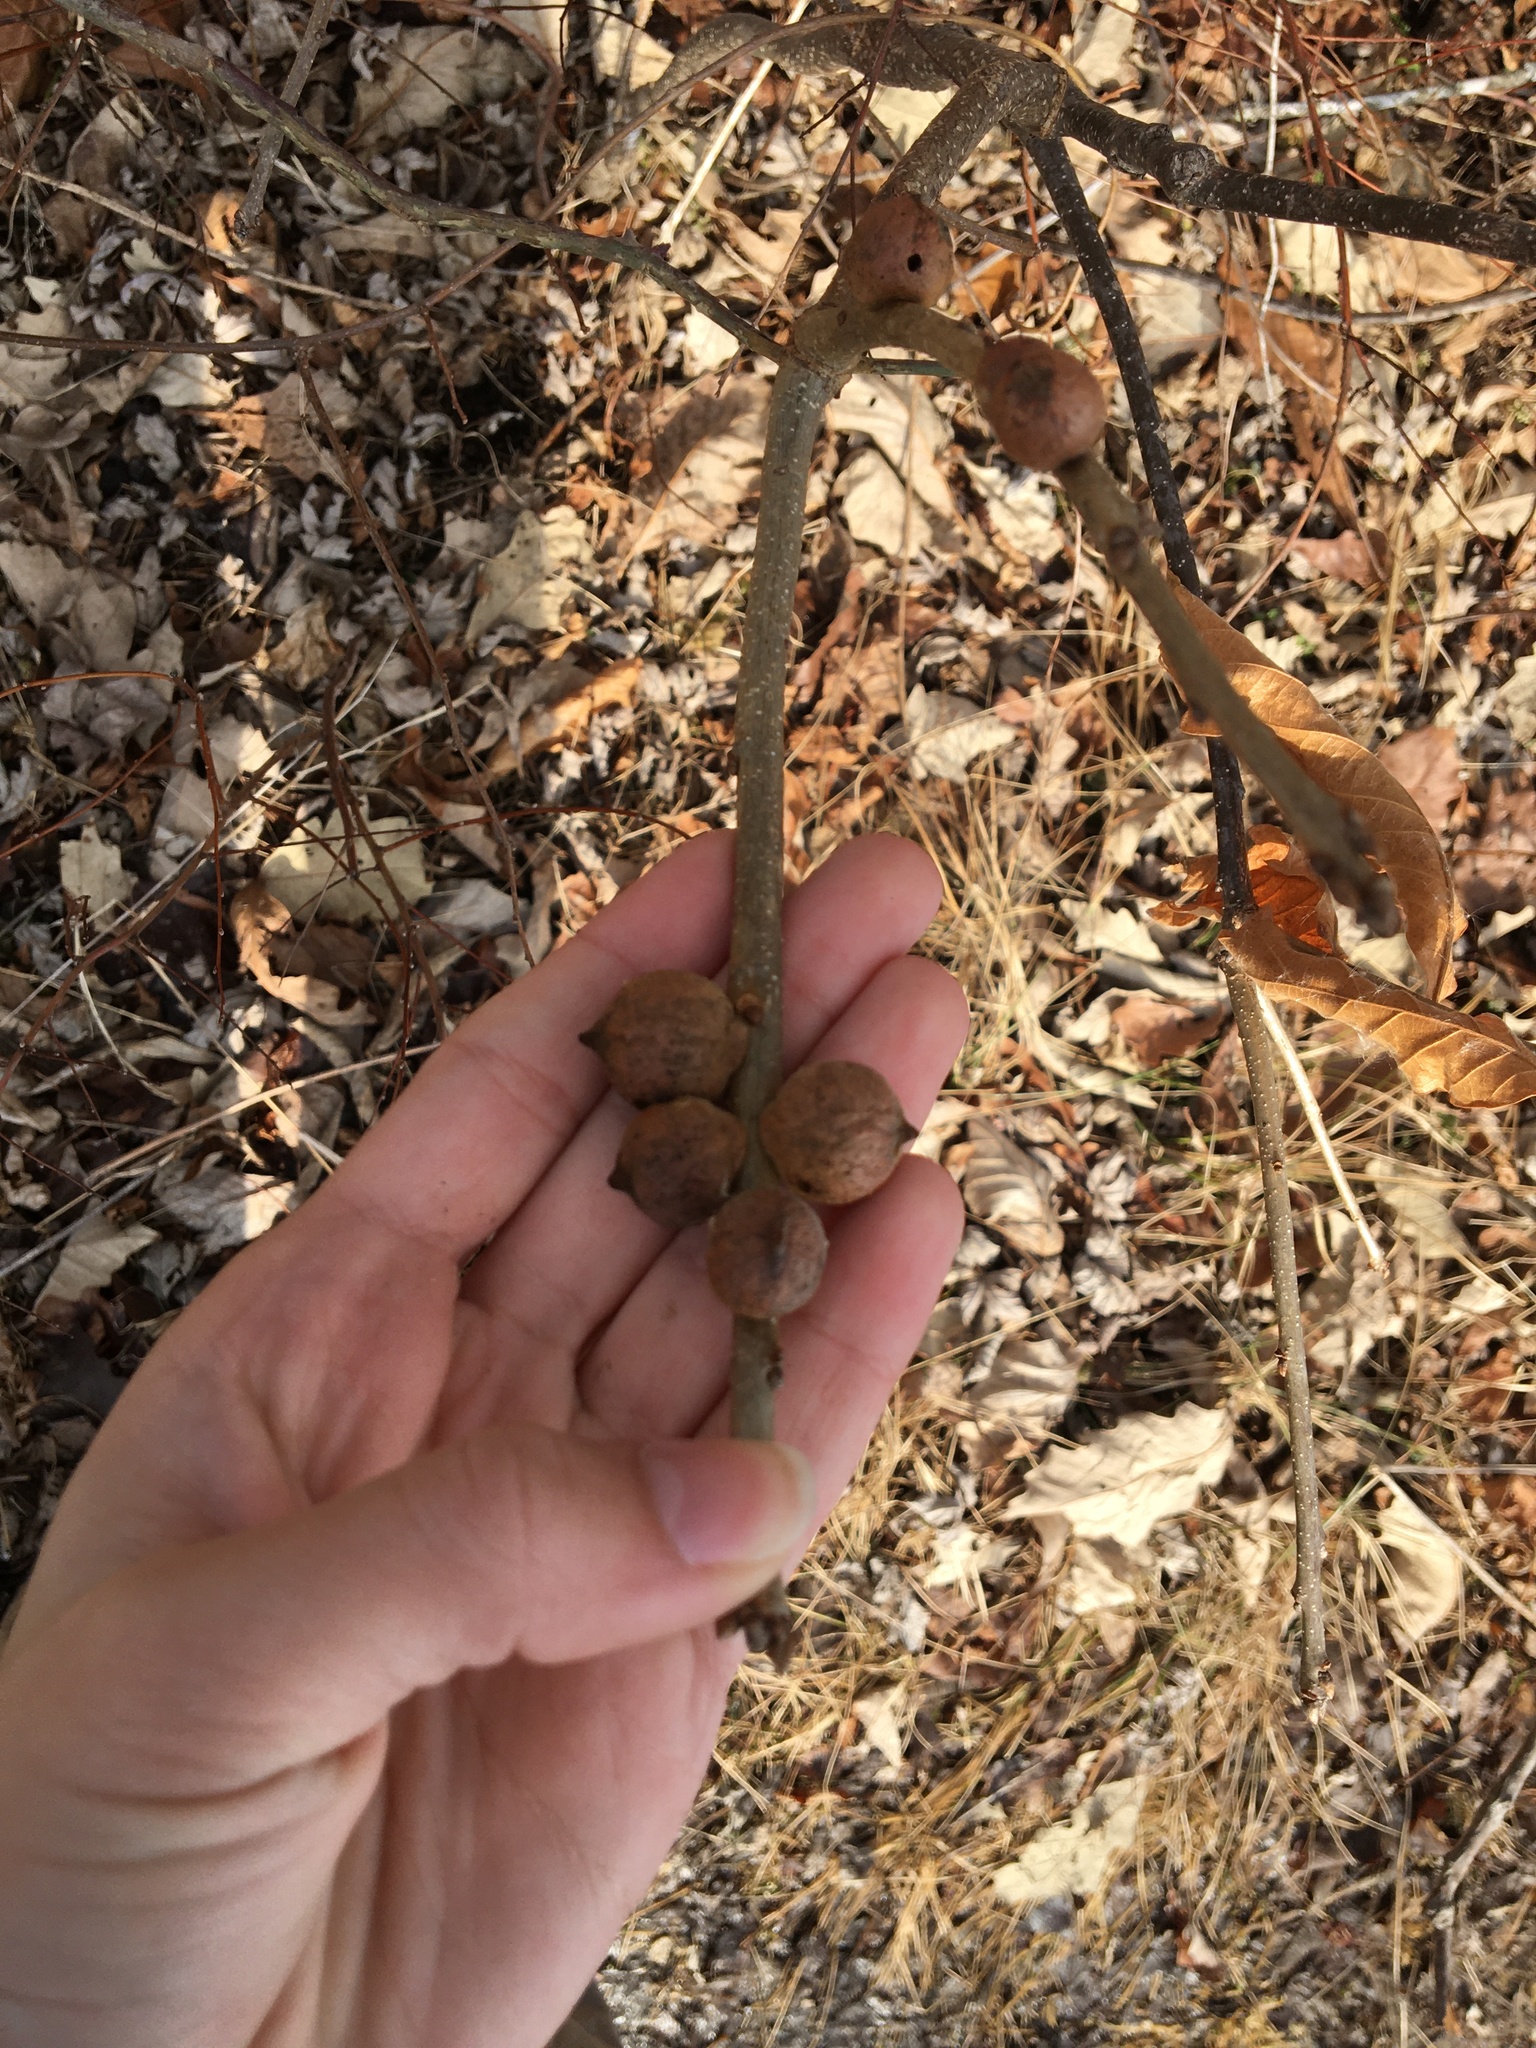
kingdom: Animalia
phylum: Arthropoda
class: Insecta
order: Hymenoptera
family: Cynipidae
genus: Disholcaspis
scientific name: Disholcaspis
